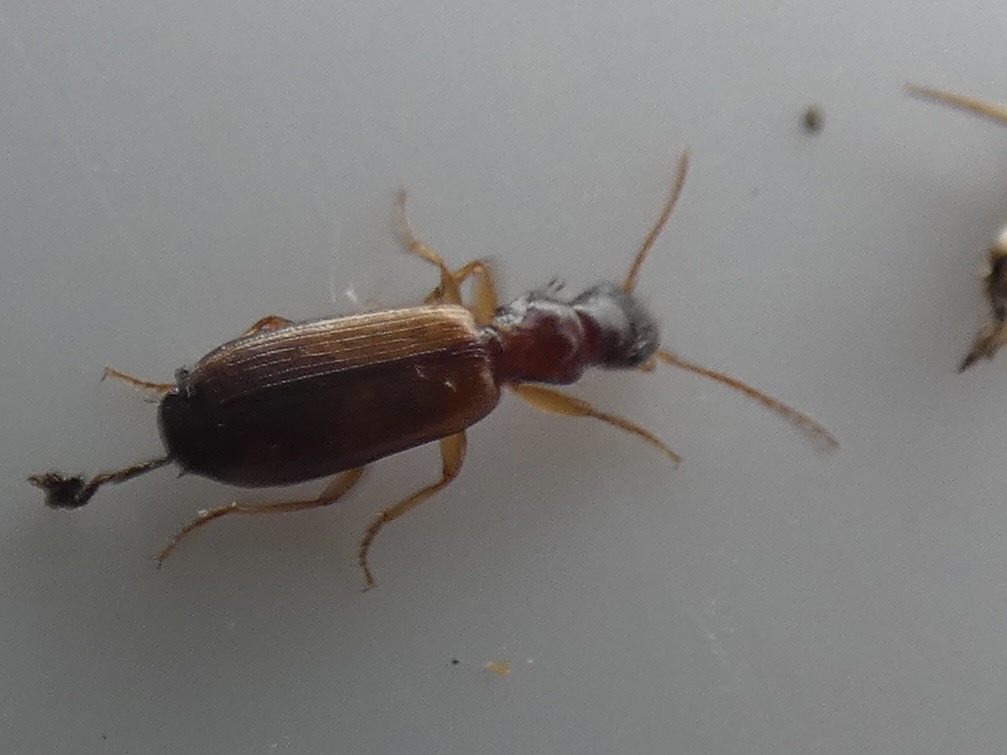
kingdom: Animalia
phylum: Arthropoda
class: Insecta
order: Coleoptera
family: Carabidae
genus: Paradromius
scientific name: Paradromius linearis
